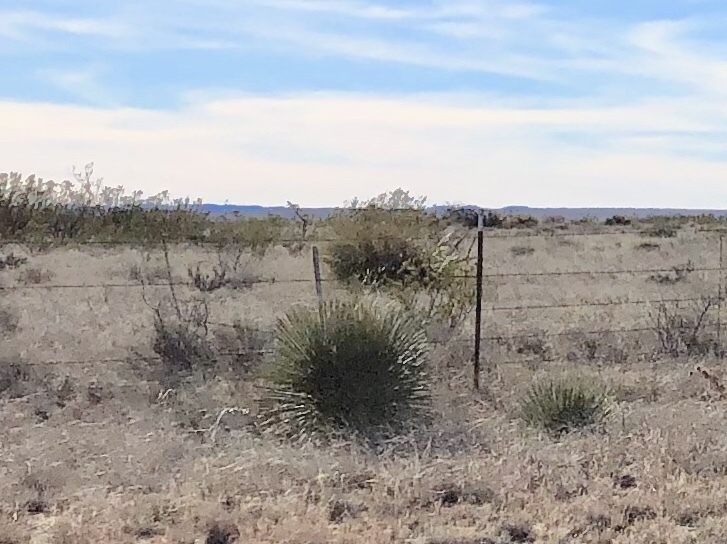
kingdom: Plantae
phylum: Tracheophyta
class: Liliopsida
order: Asparagales
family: Asparagaceae
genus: Yucca
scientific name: Yucca elata
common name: Palmella
